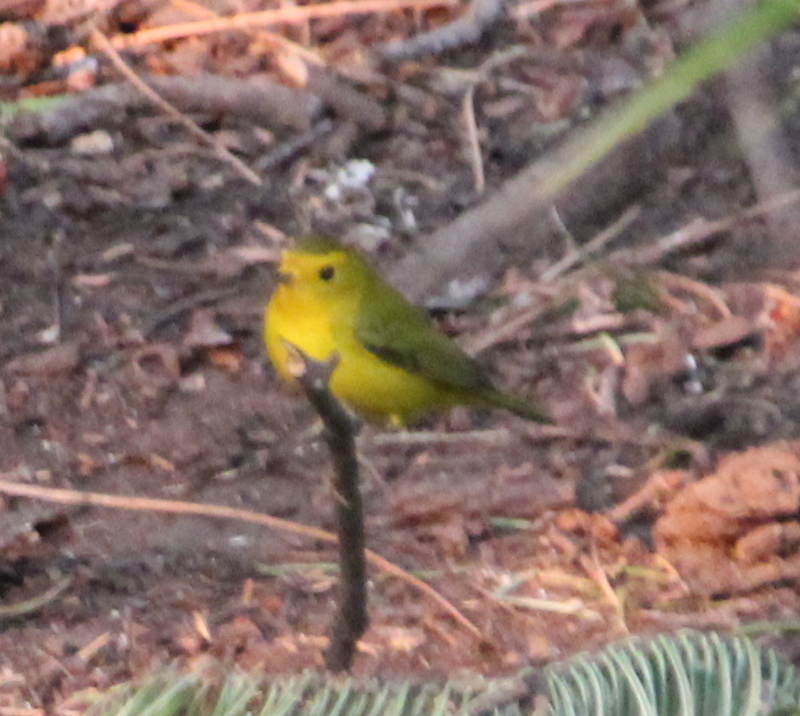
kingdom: Animalia
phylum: Chordata
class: Aves
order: Passeriformes
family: Parulidae
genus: Cardellina
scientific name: Cardellina pusilla
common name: Wilson's warbler
